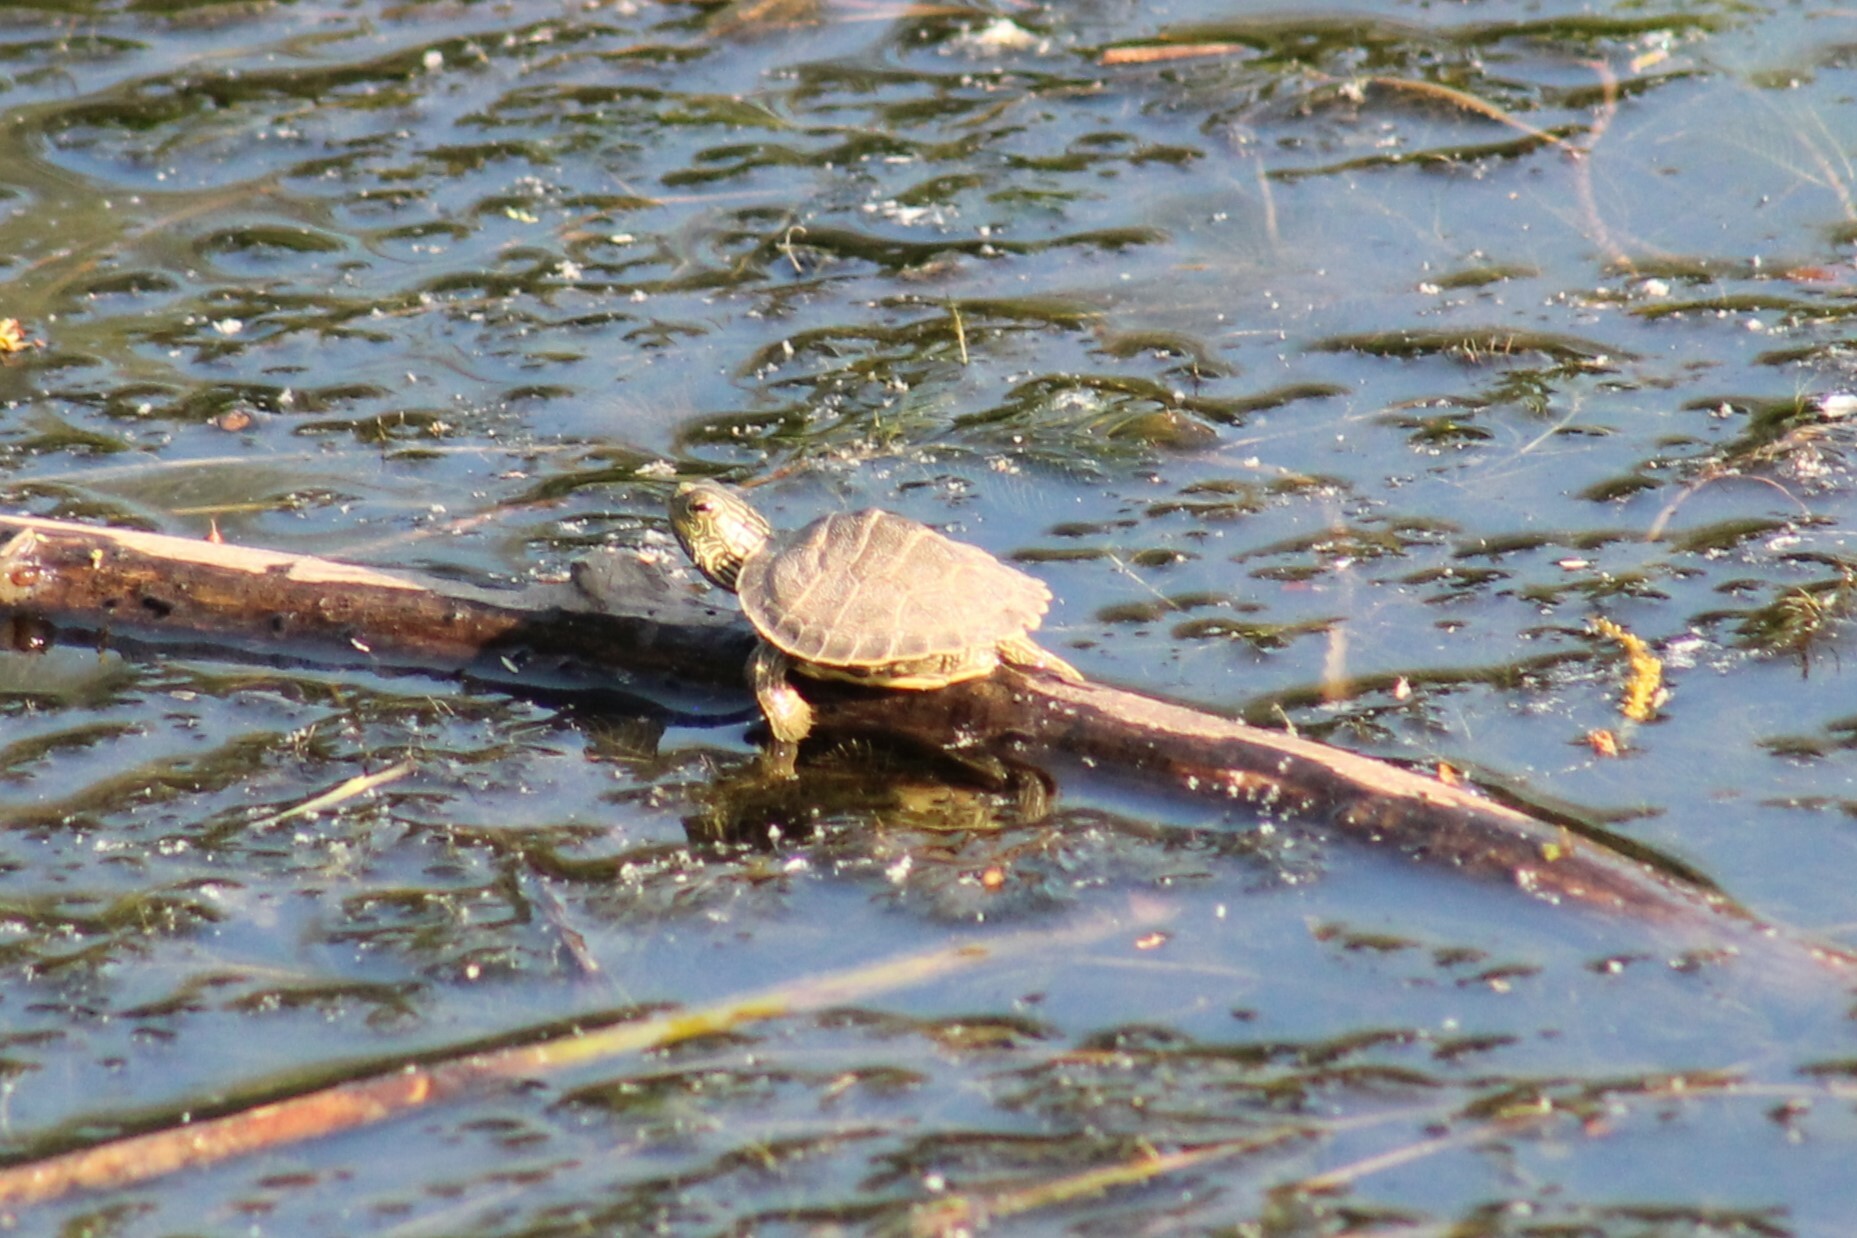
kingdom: Animalia
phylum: Chordata
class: Testudines
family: Emydidae
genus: Graptemys
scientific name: Graptemys geographica
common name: Common map turtle
